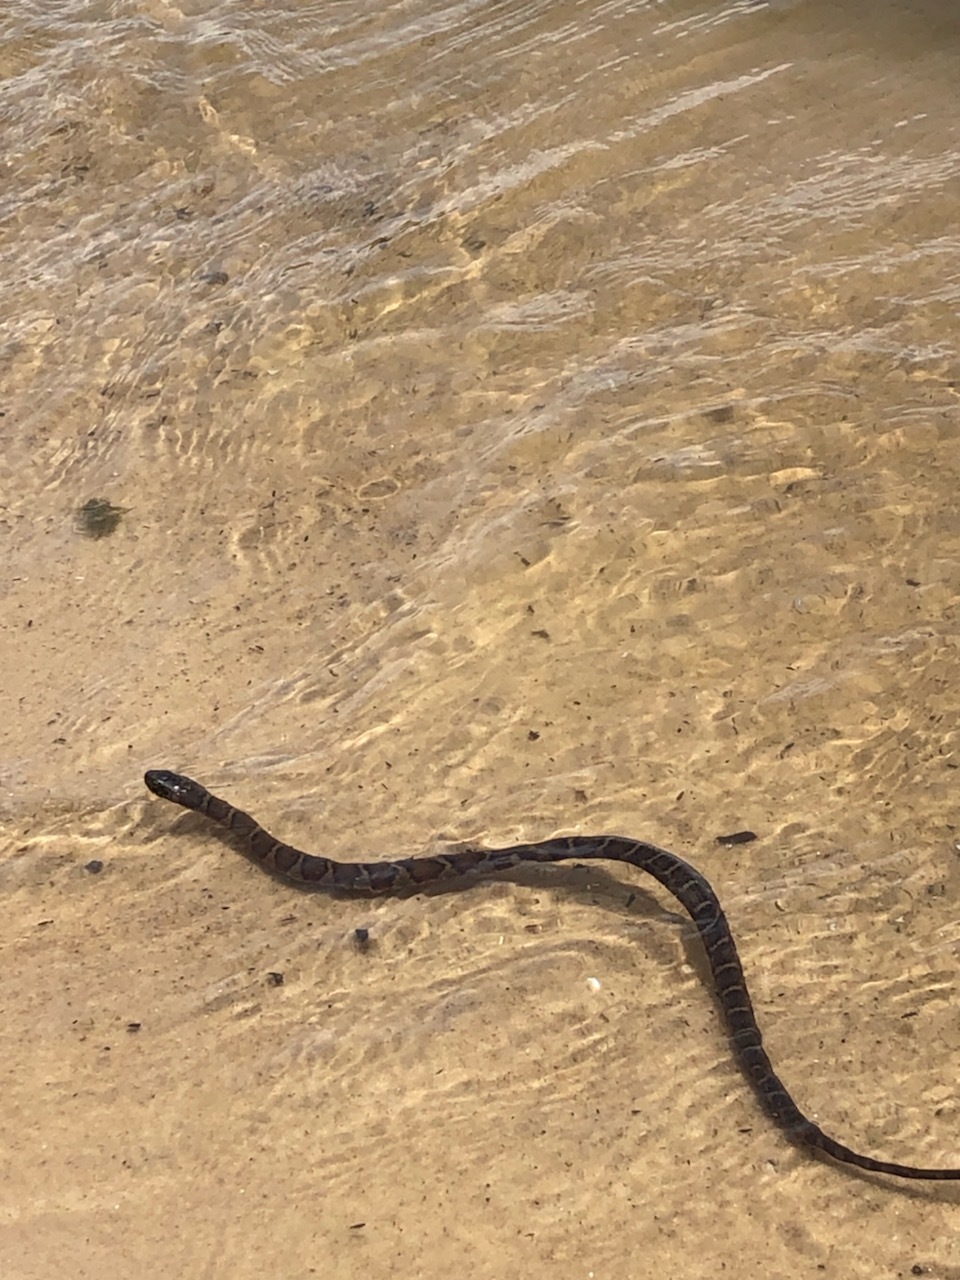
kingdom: Animalia
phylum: Chordata
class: Squamata
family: Colubridae
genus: Nerodia
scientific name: Nerodia sipedon
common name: Northern water snake
